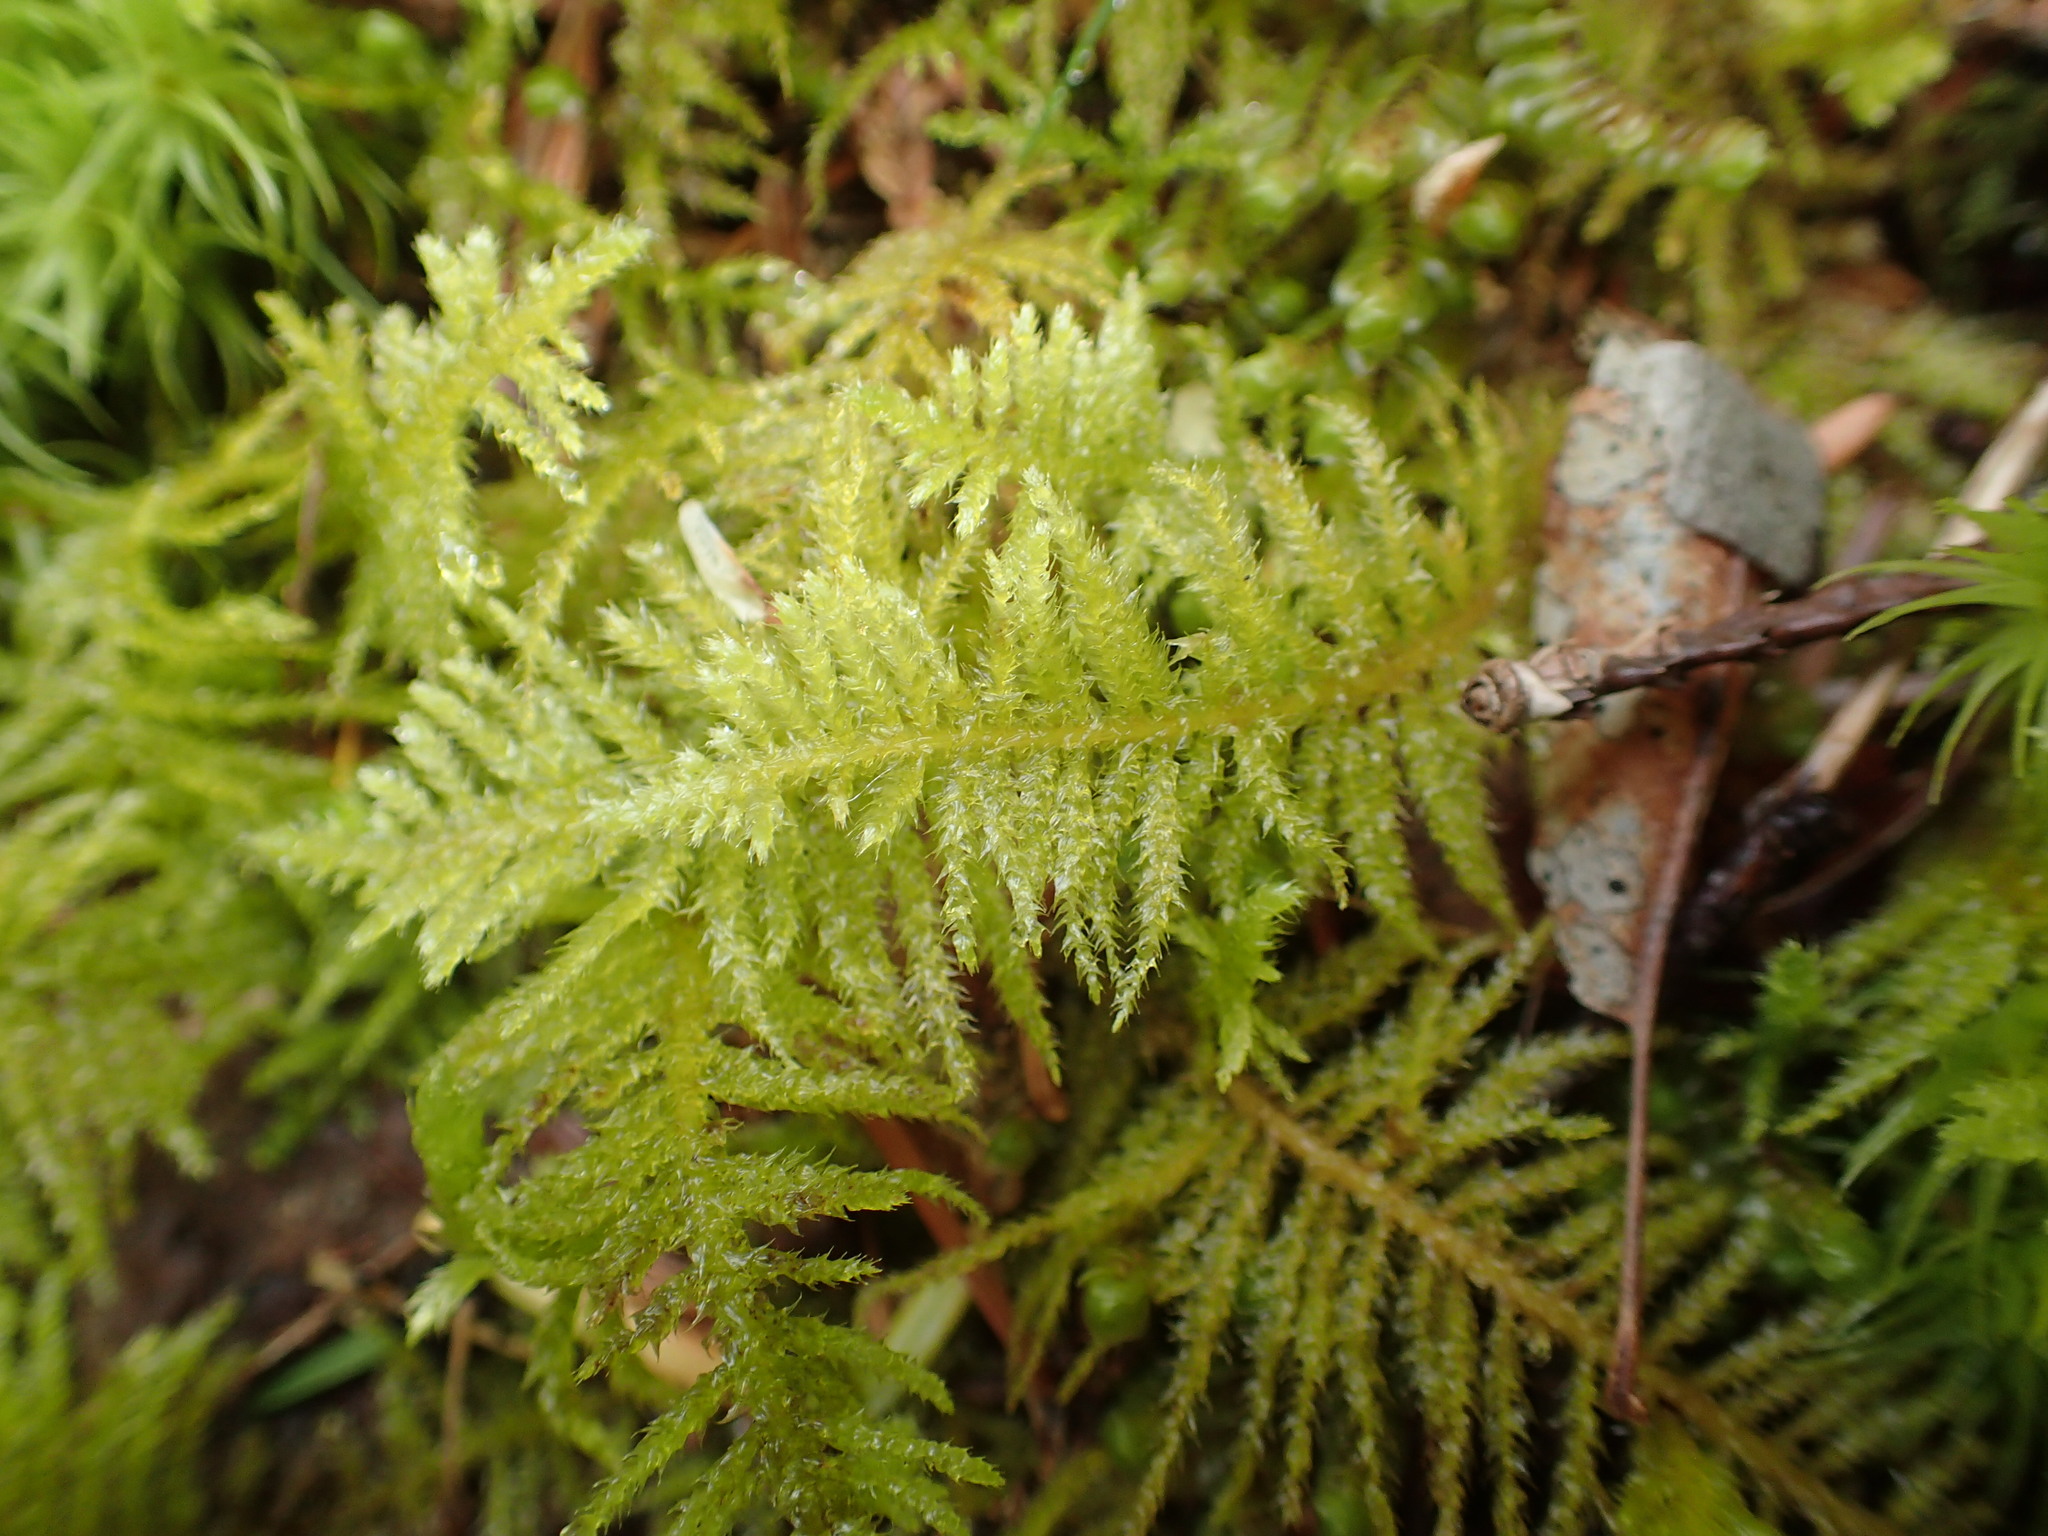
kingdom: Plantae
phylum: Bryophyta
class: Bryopsida
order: Hypnales
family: Brachytheciaceae
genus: Kindbergia
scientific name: Kindbergia oregana
